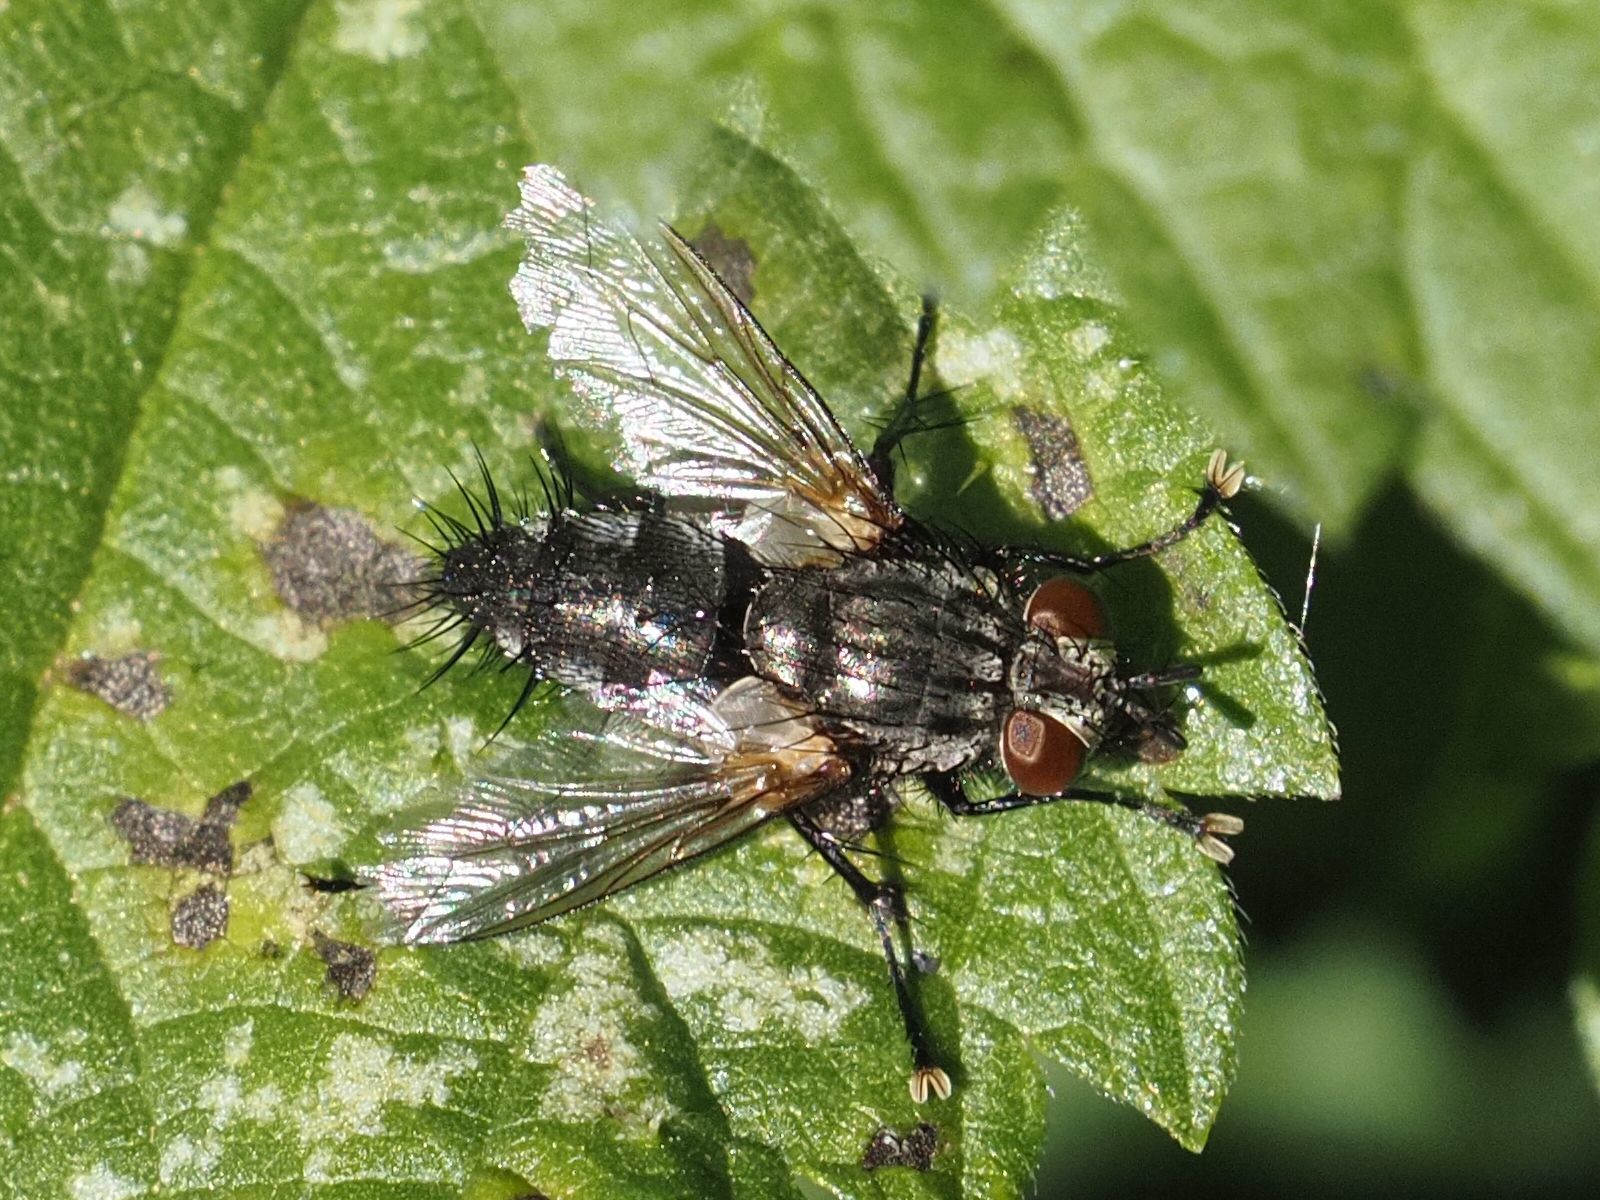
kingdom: Animalia
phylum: Arthropoda
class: Insecta
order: Diptera
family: Tachinidae
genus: Voria
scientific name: Voria ruralis
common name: Parasitic fly
